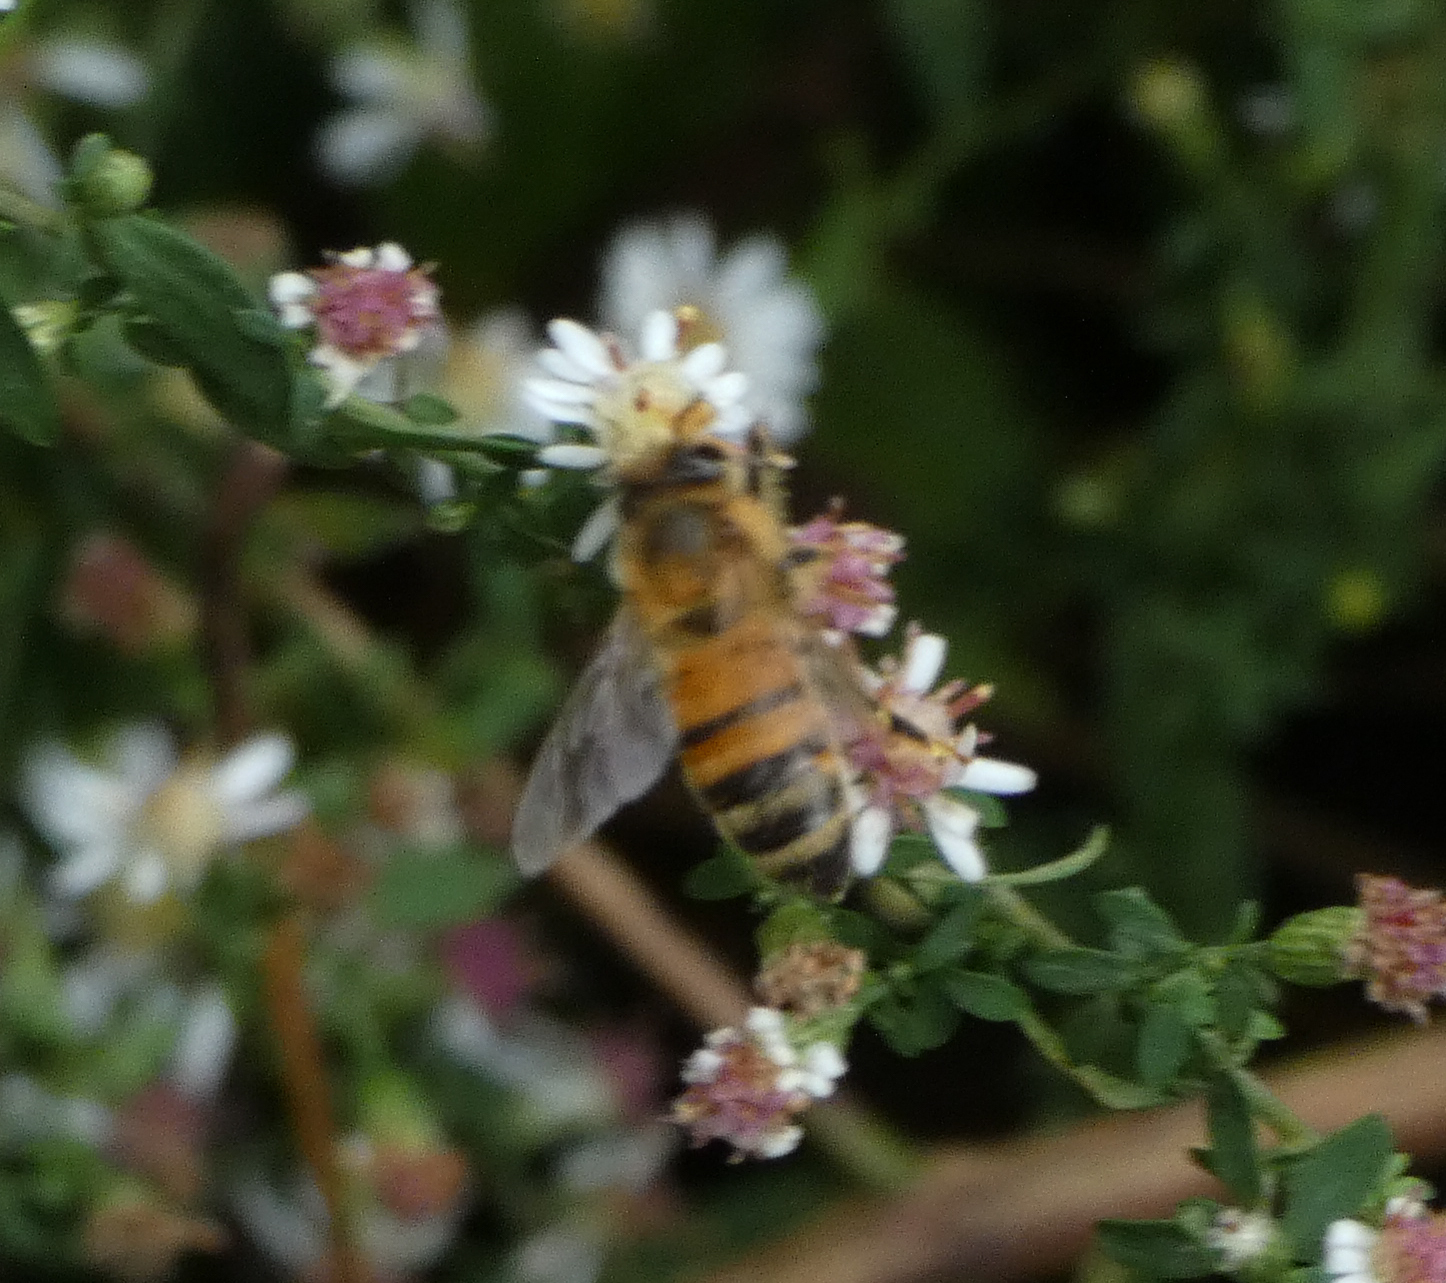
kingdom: Animalia
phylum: Arthropoda
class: Insecta
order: Hymenoptera
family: Apidae
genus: Apis
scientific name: Apis mellifera
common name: Honey bee
